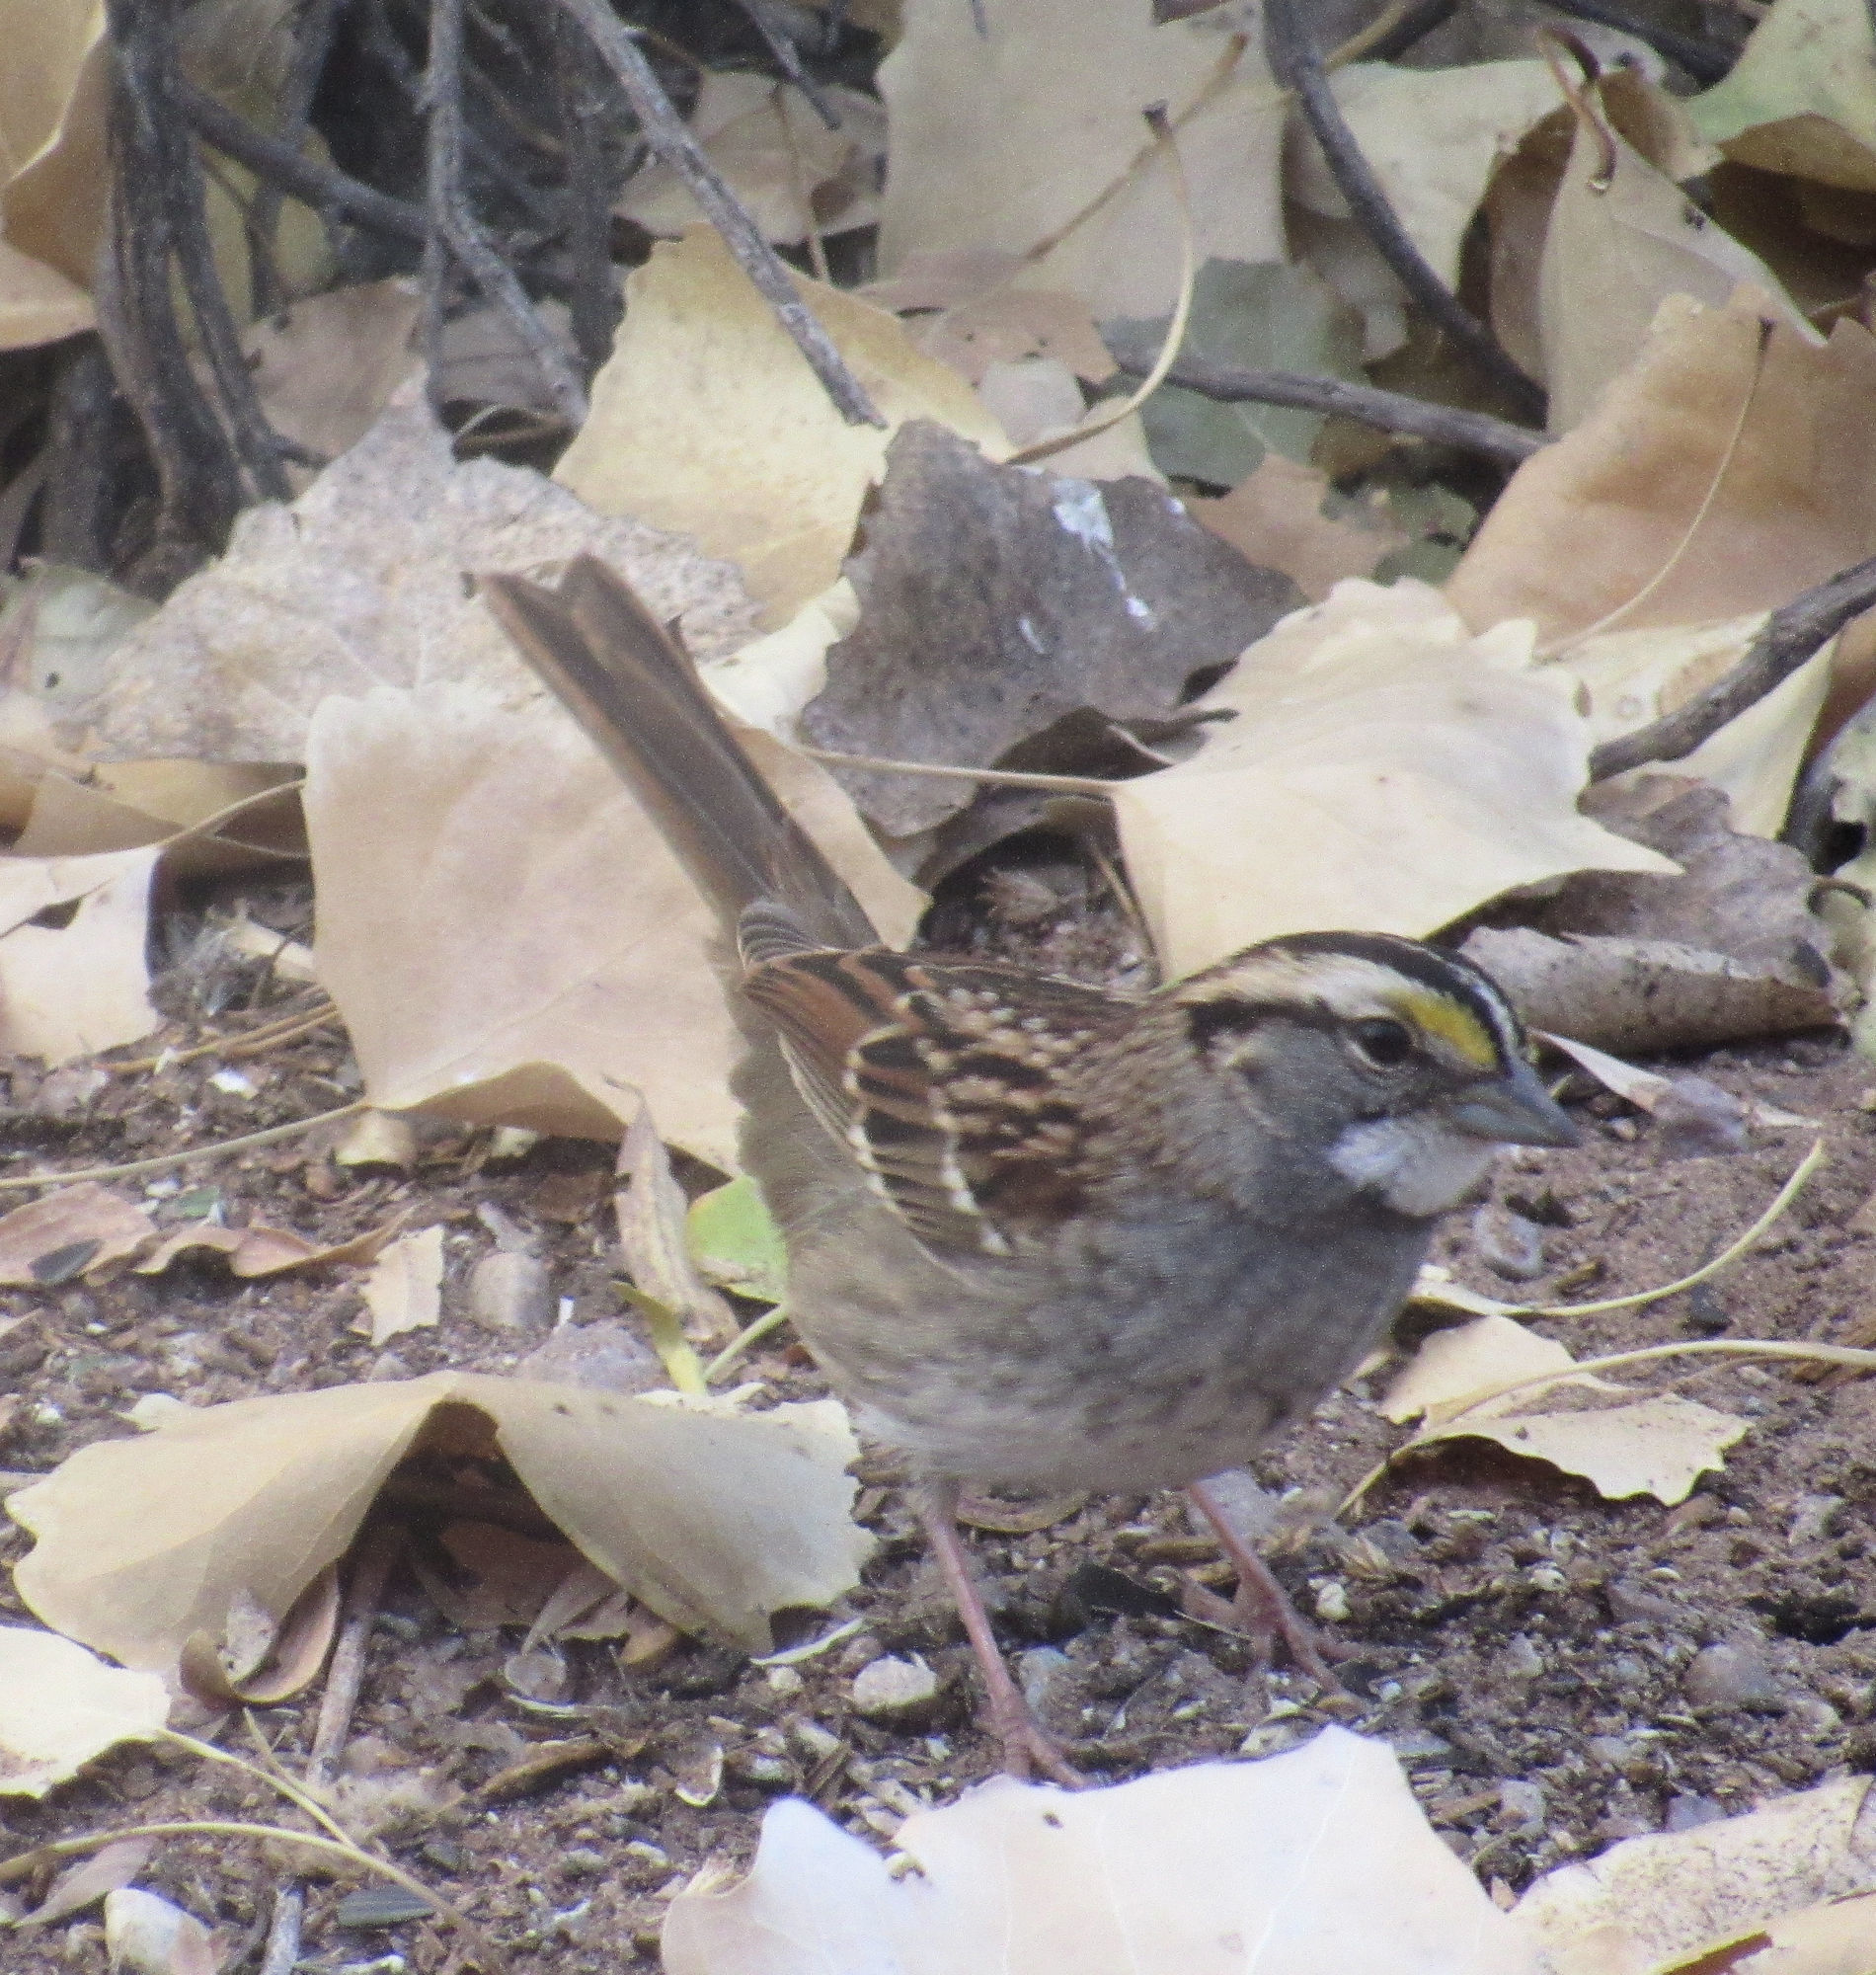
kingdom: Animalia
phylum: Chordata
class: Aves
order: Passeriformes
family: Passerellidae
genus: Zonotrichia
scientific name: Zonotrichia albicollis
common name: White-throated sparrow
